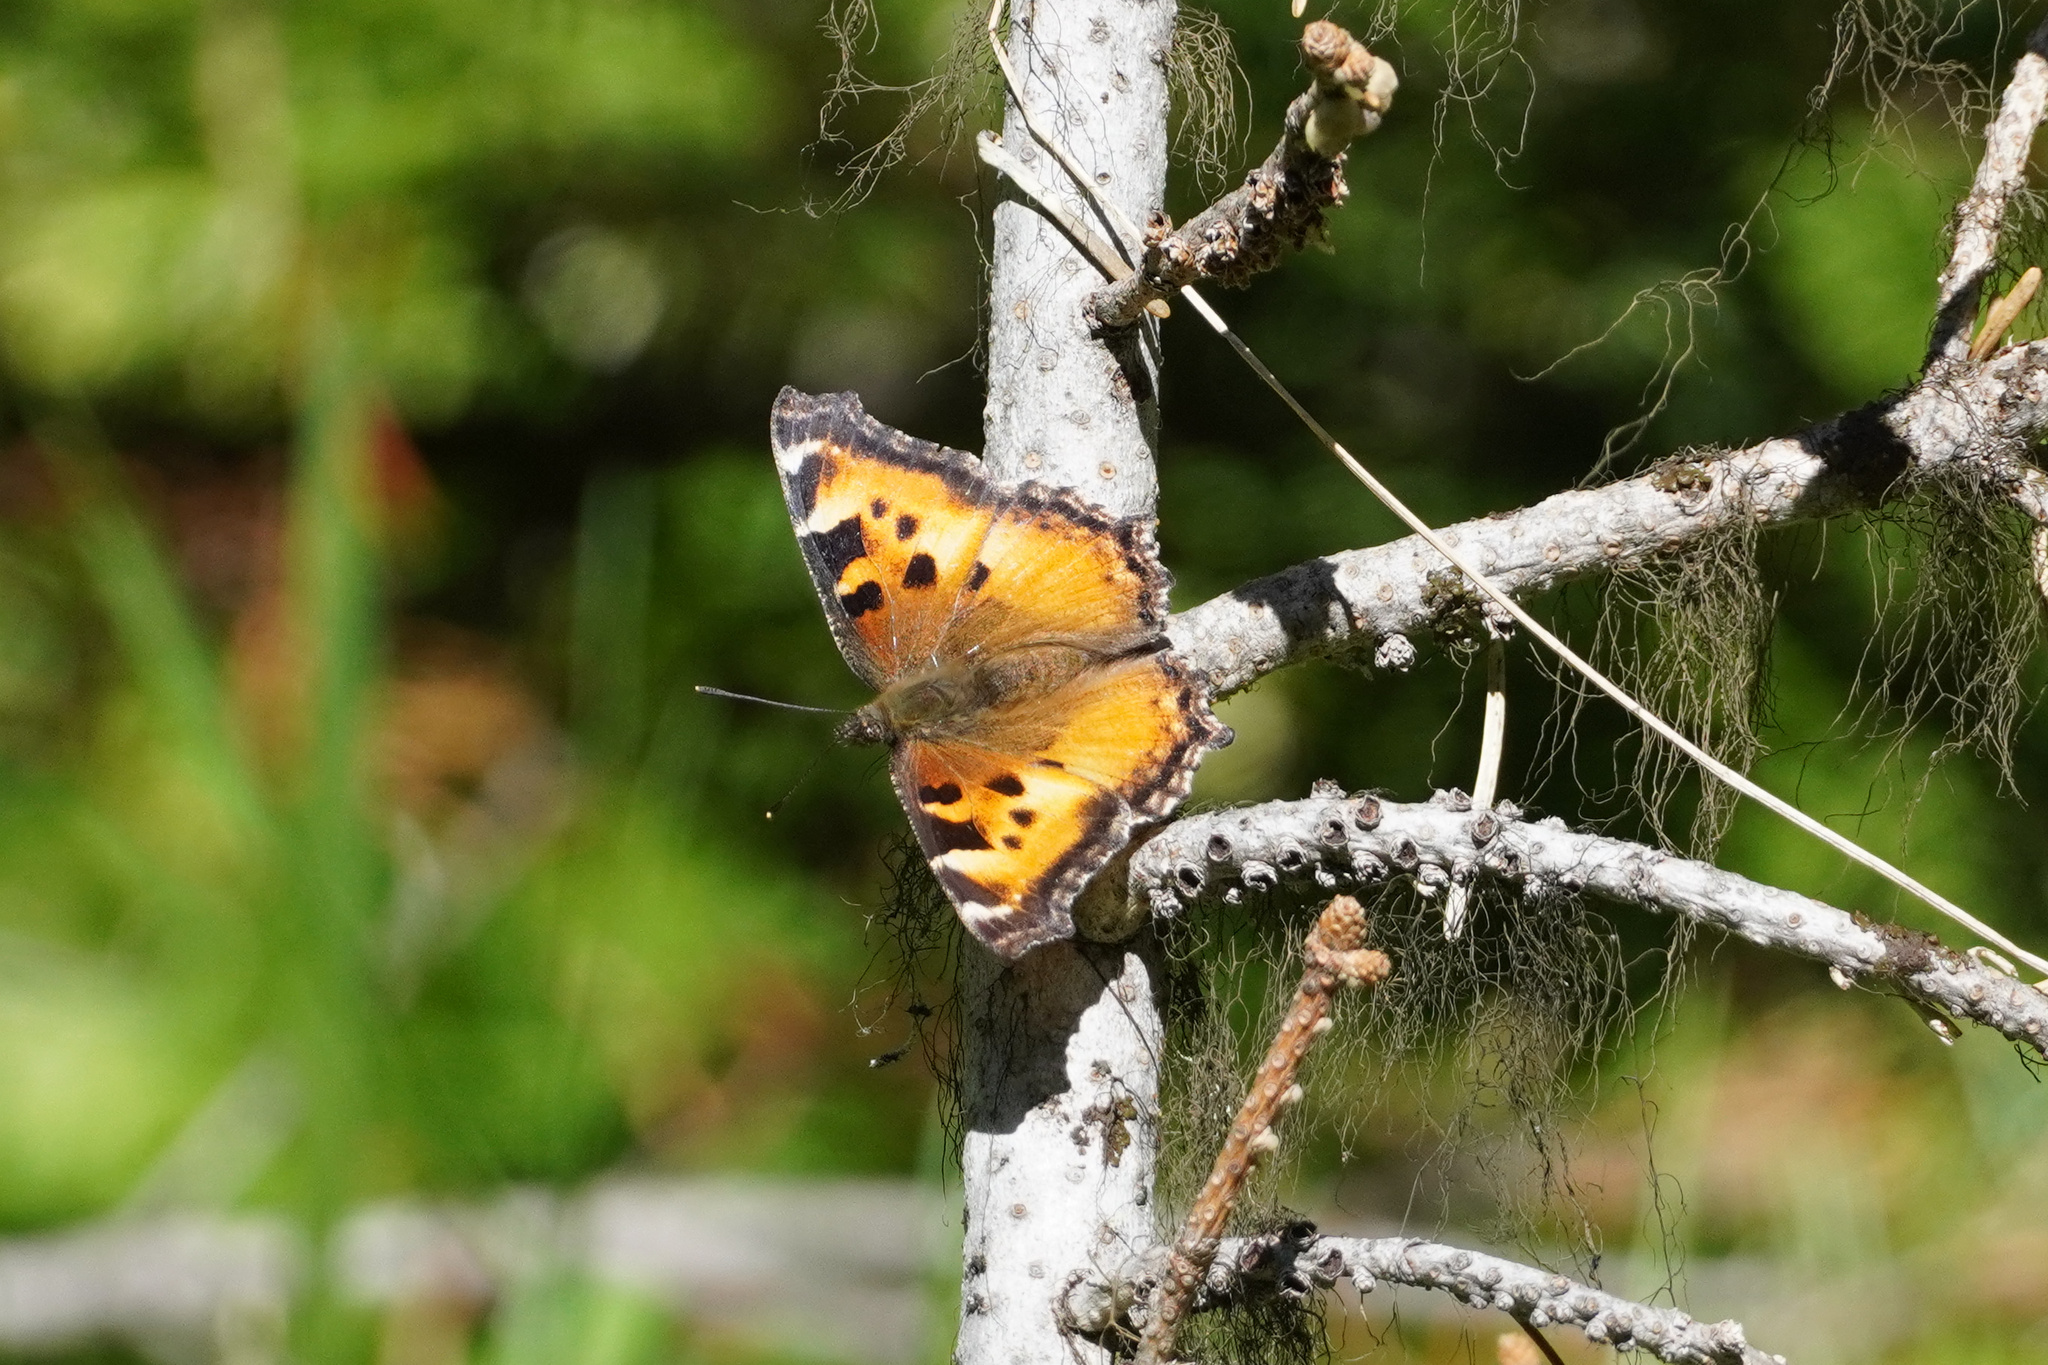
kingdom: Animalia
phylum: Arthropoda
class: Insecta
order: Lepidoptera
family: Nymphalidae
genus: Nymphalis
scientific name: Nymphalis californica
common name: California tortoiseshell
